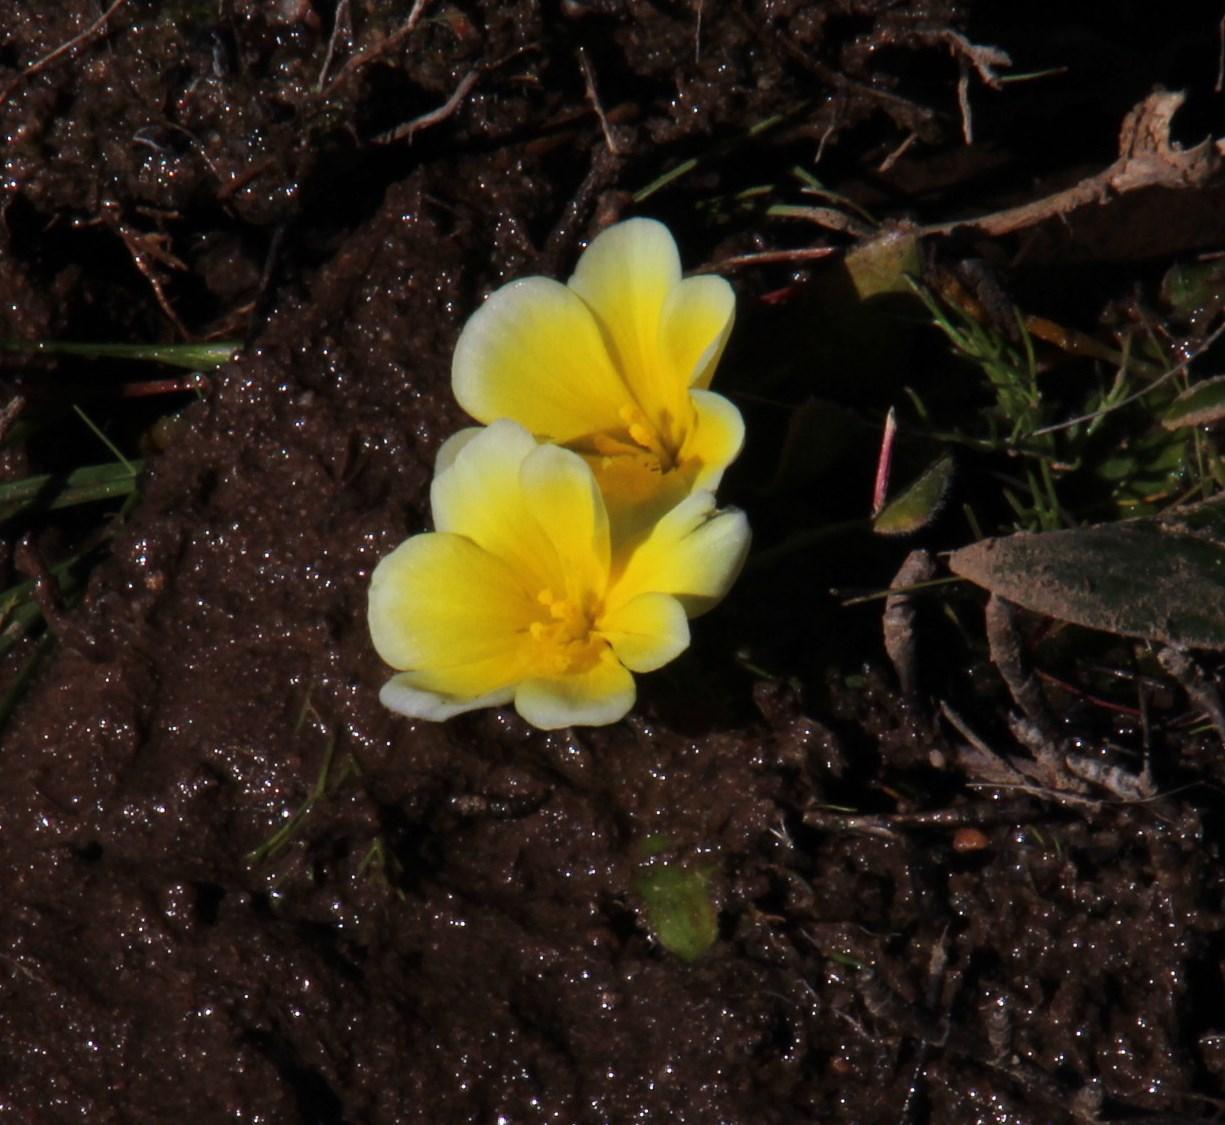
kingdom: Plantae
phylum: Tracheophyta
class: Liliopsida
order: Asparagales
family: Iridaceae
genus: Moraea
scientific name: Moraea luteoalba
